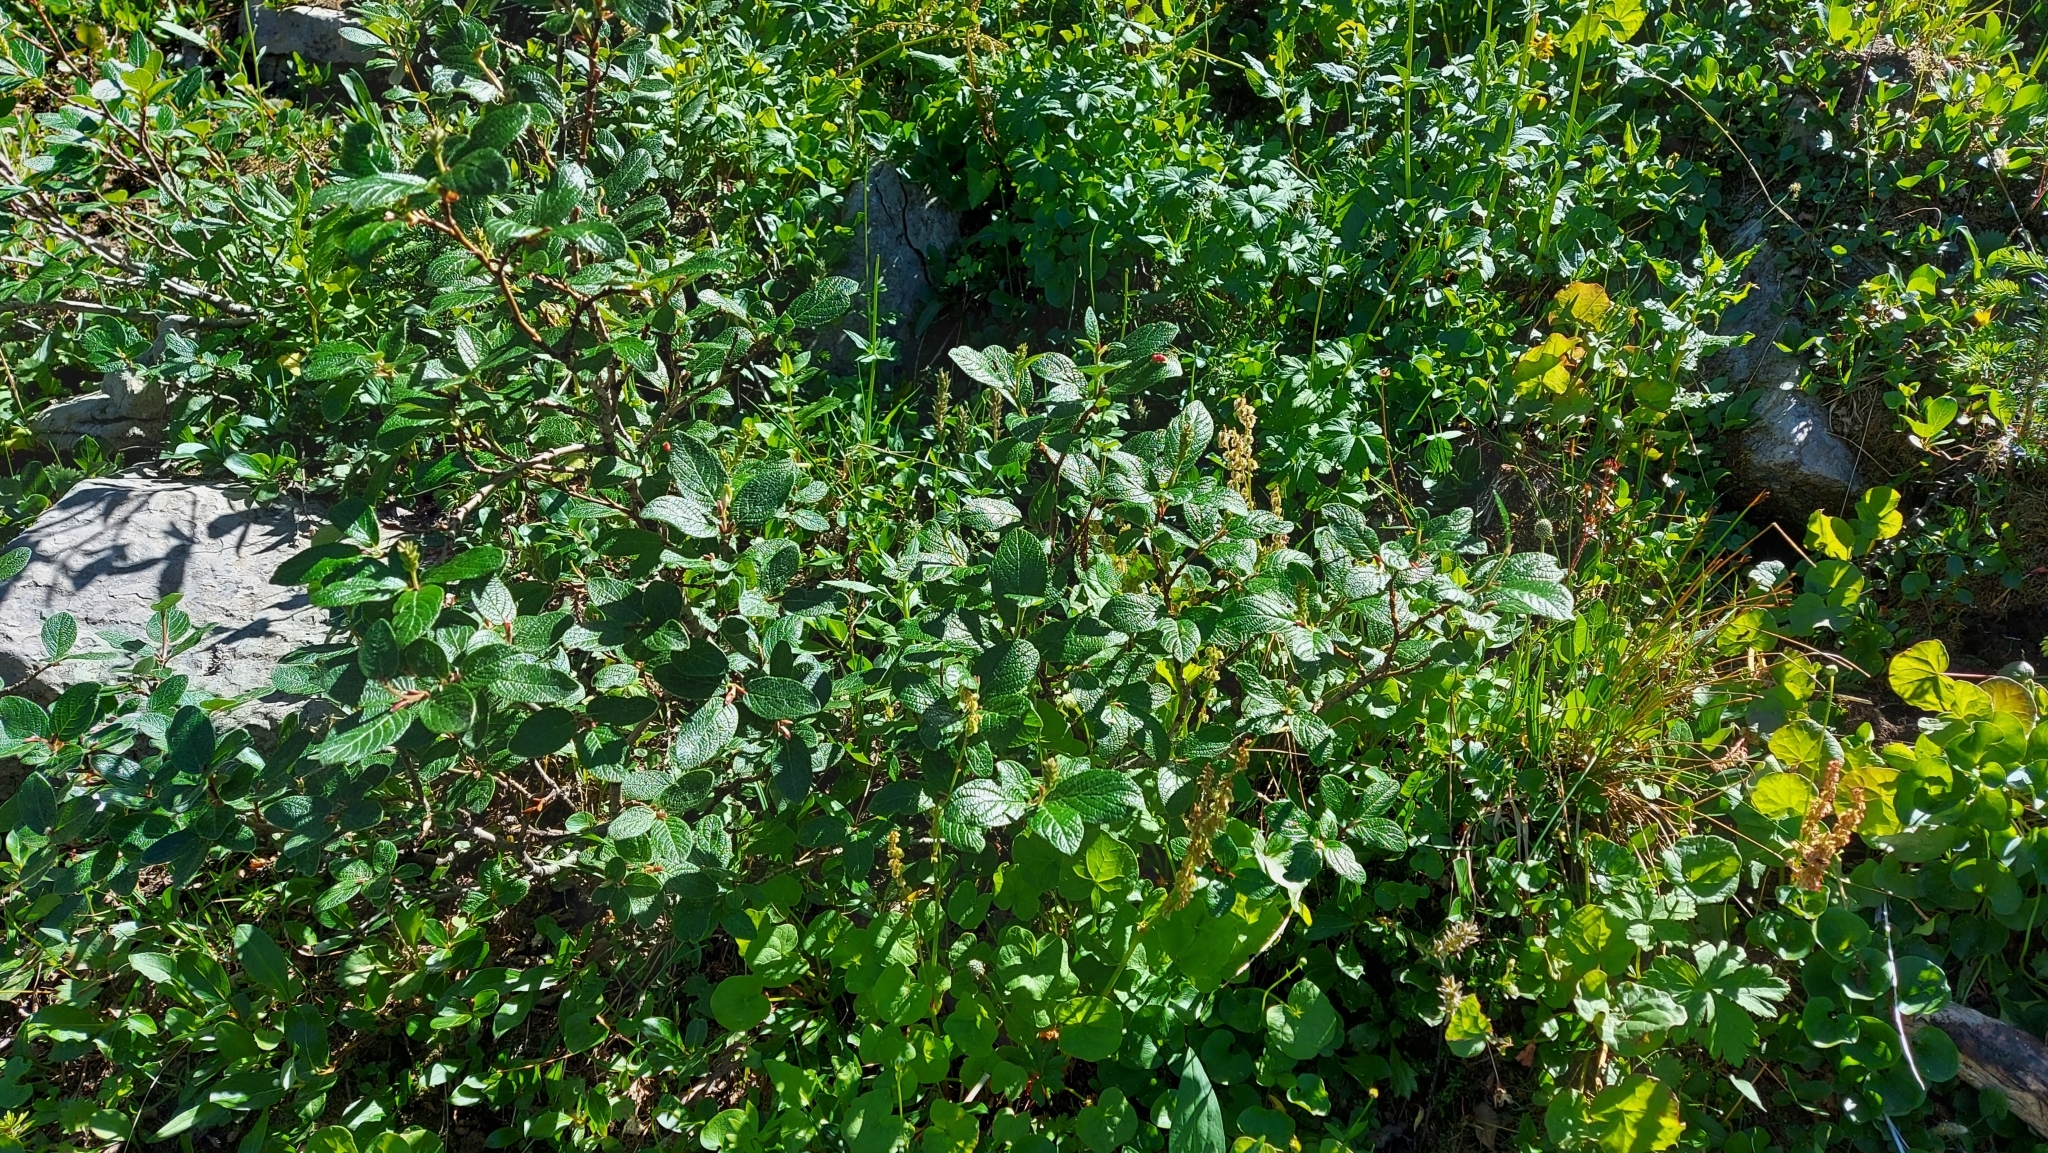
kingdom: Plantae
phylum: Tracheophyta
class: Magnoliopsida
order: Malpighiales
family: Salicaceae
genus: Salix
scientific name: Salix vestita
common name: Hairy willow
